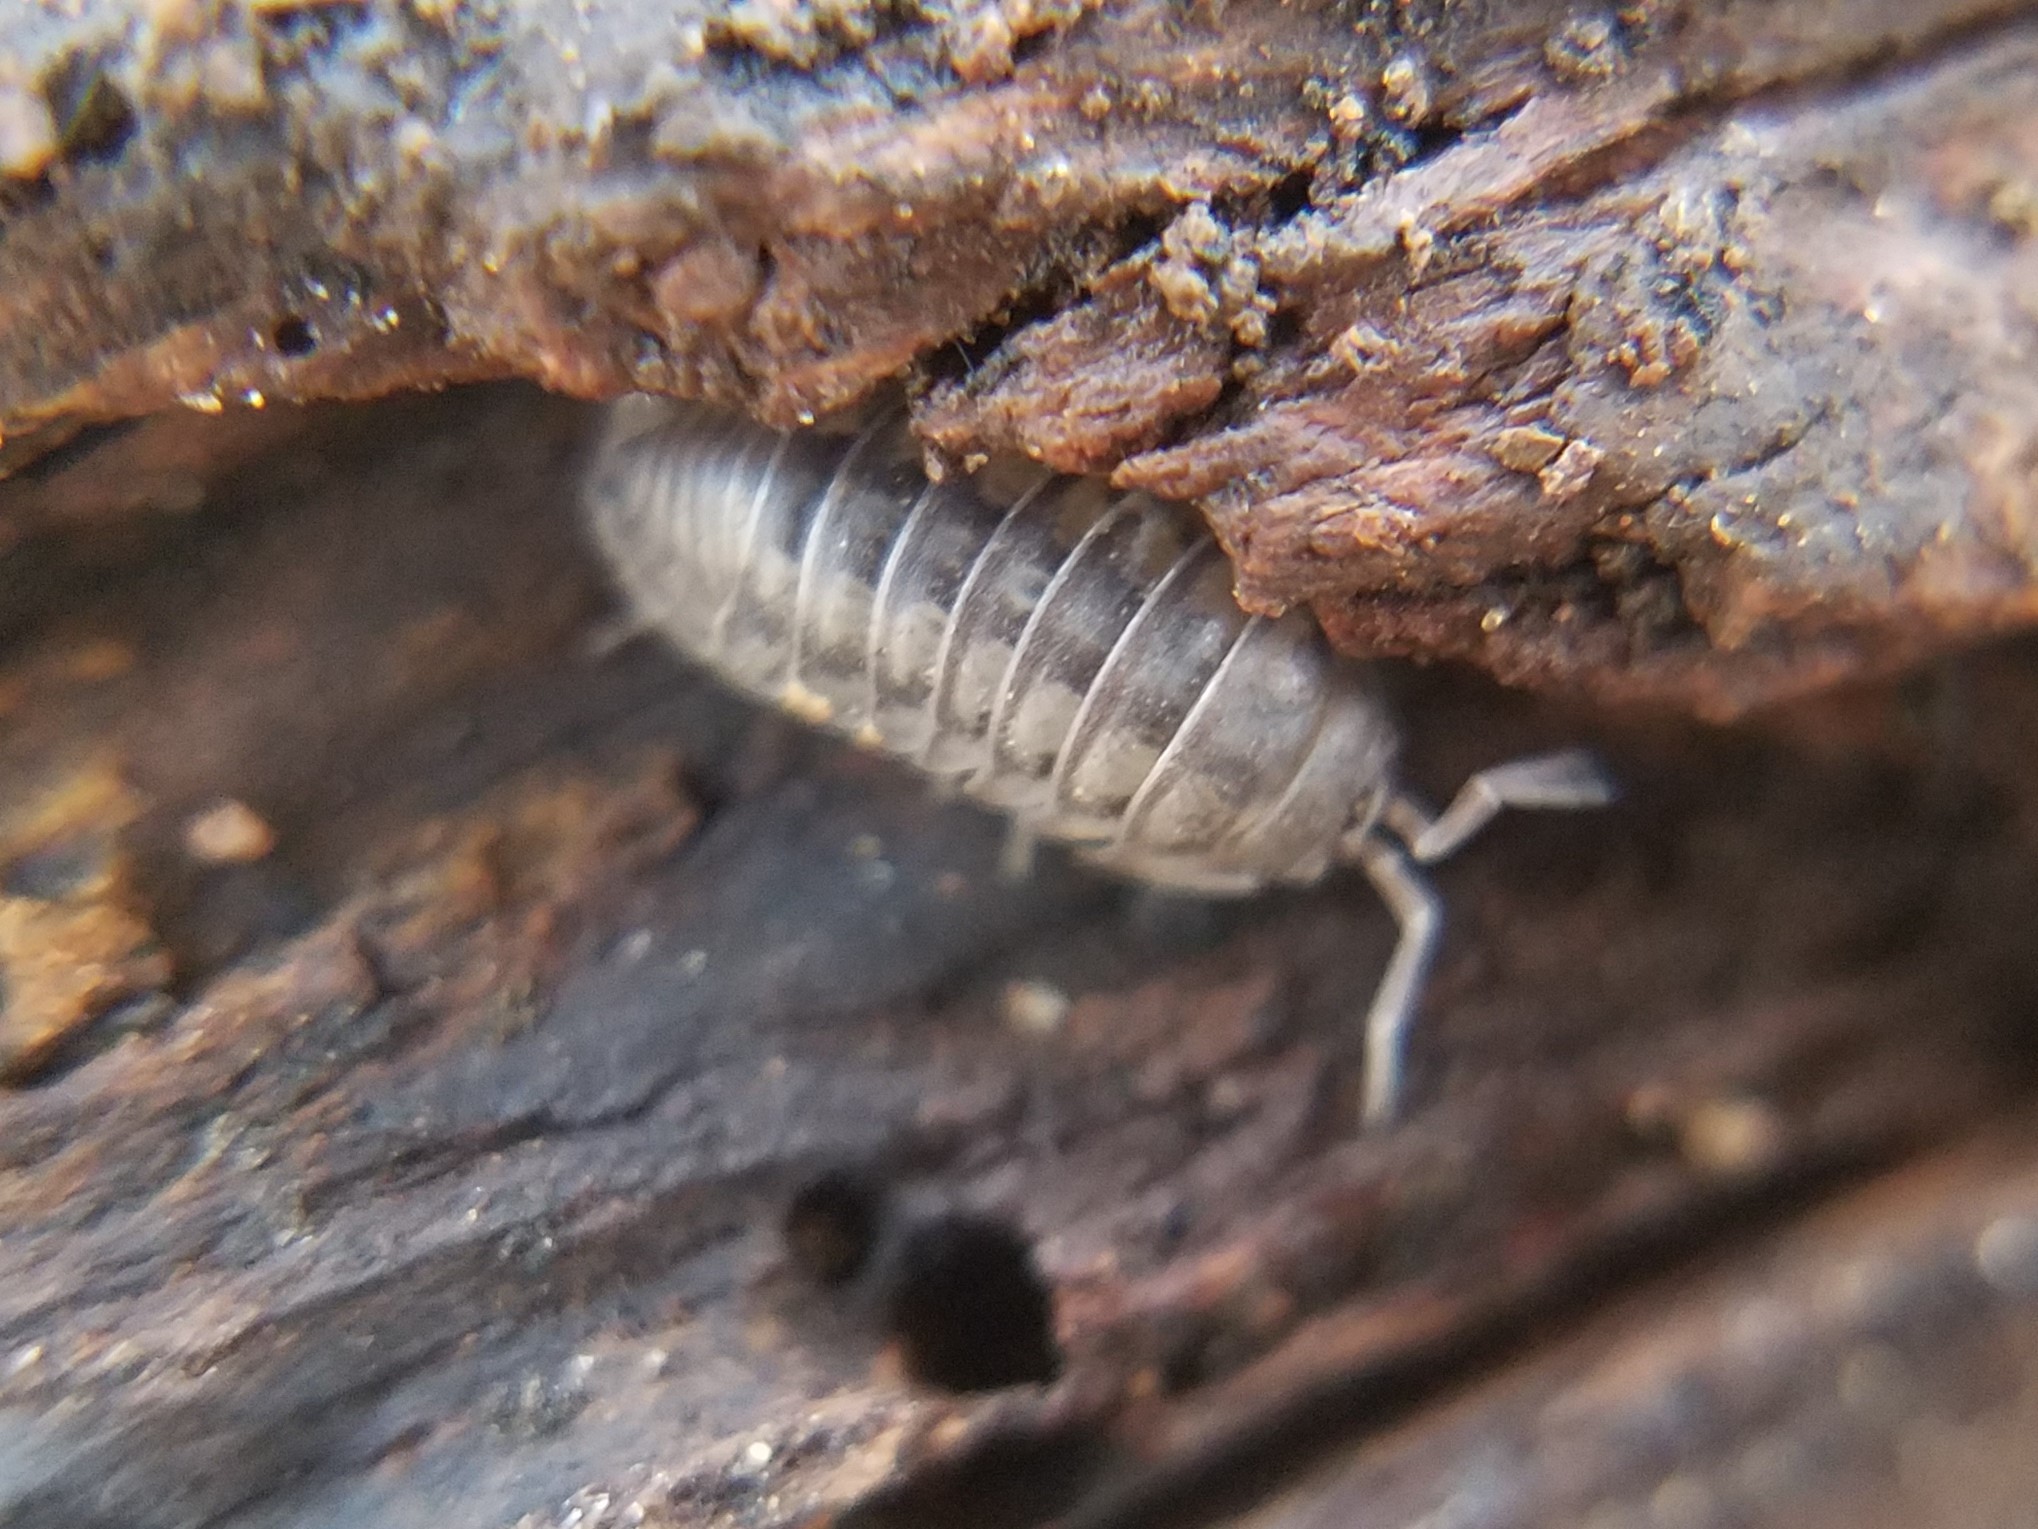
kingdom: Animalia
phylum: Arthropoda
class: Malacostraca
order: Isopoda
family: Armadillidiidae
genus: Armadillidium
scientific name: Armadillidium nasatum
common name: Isopod
